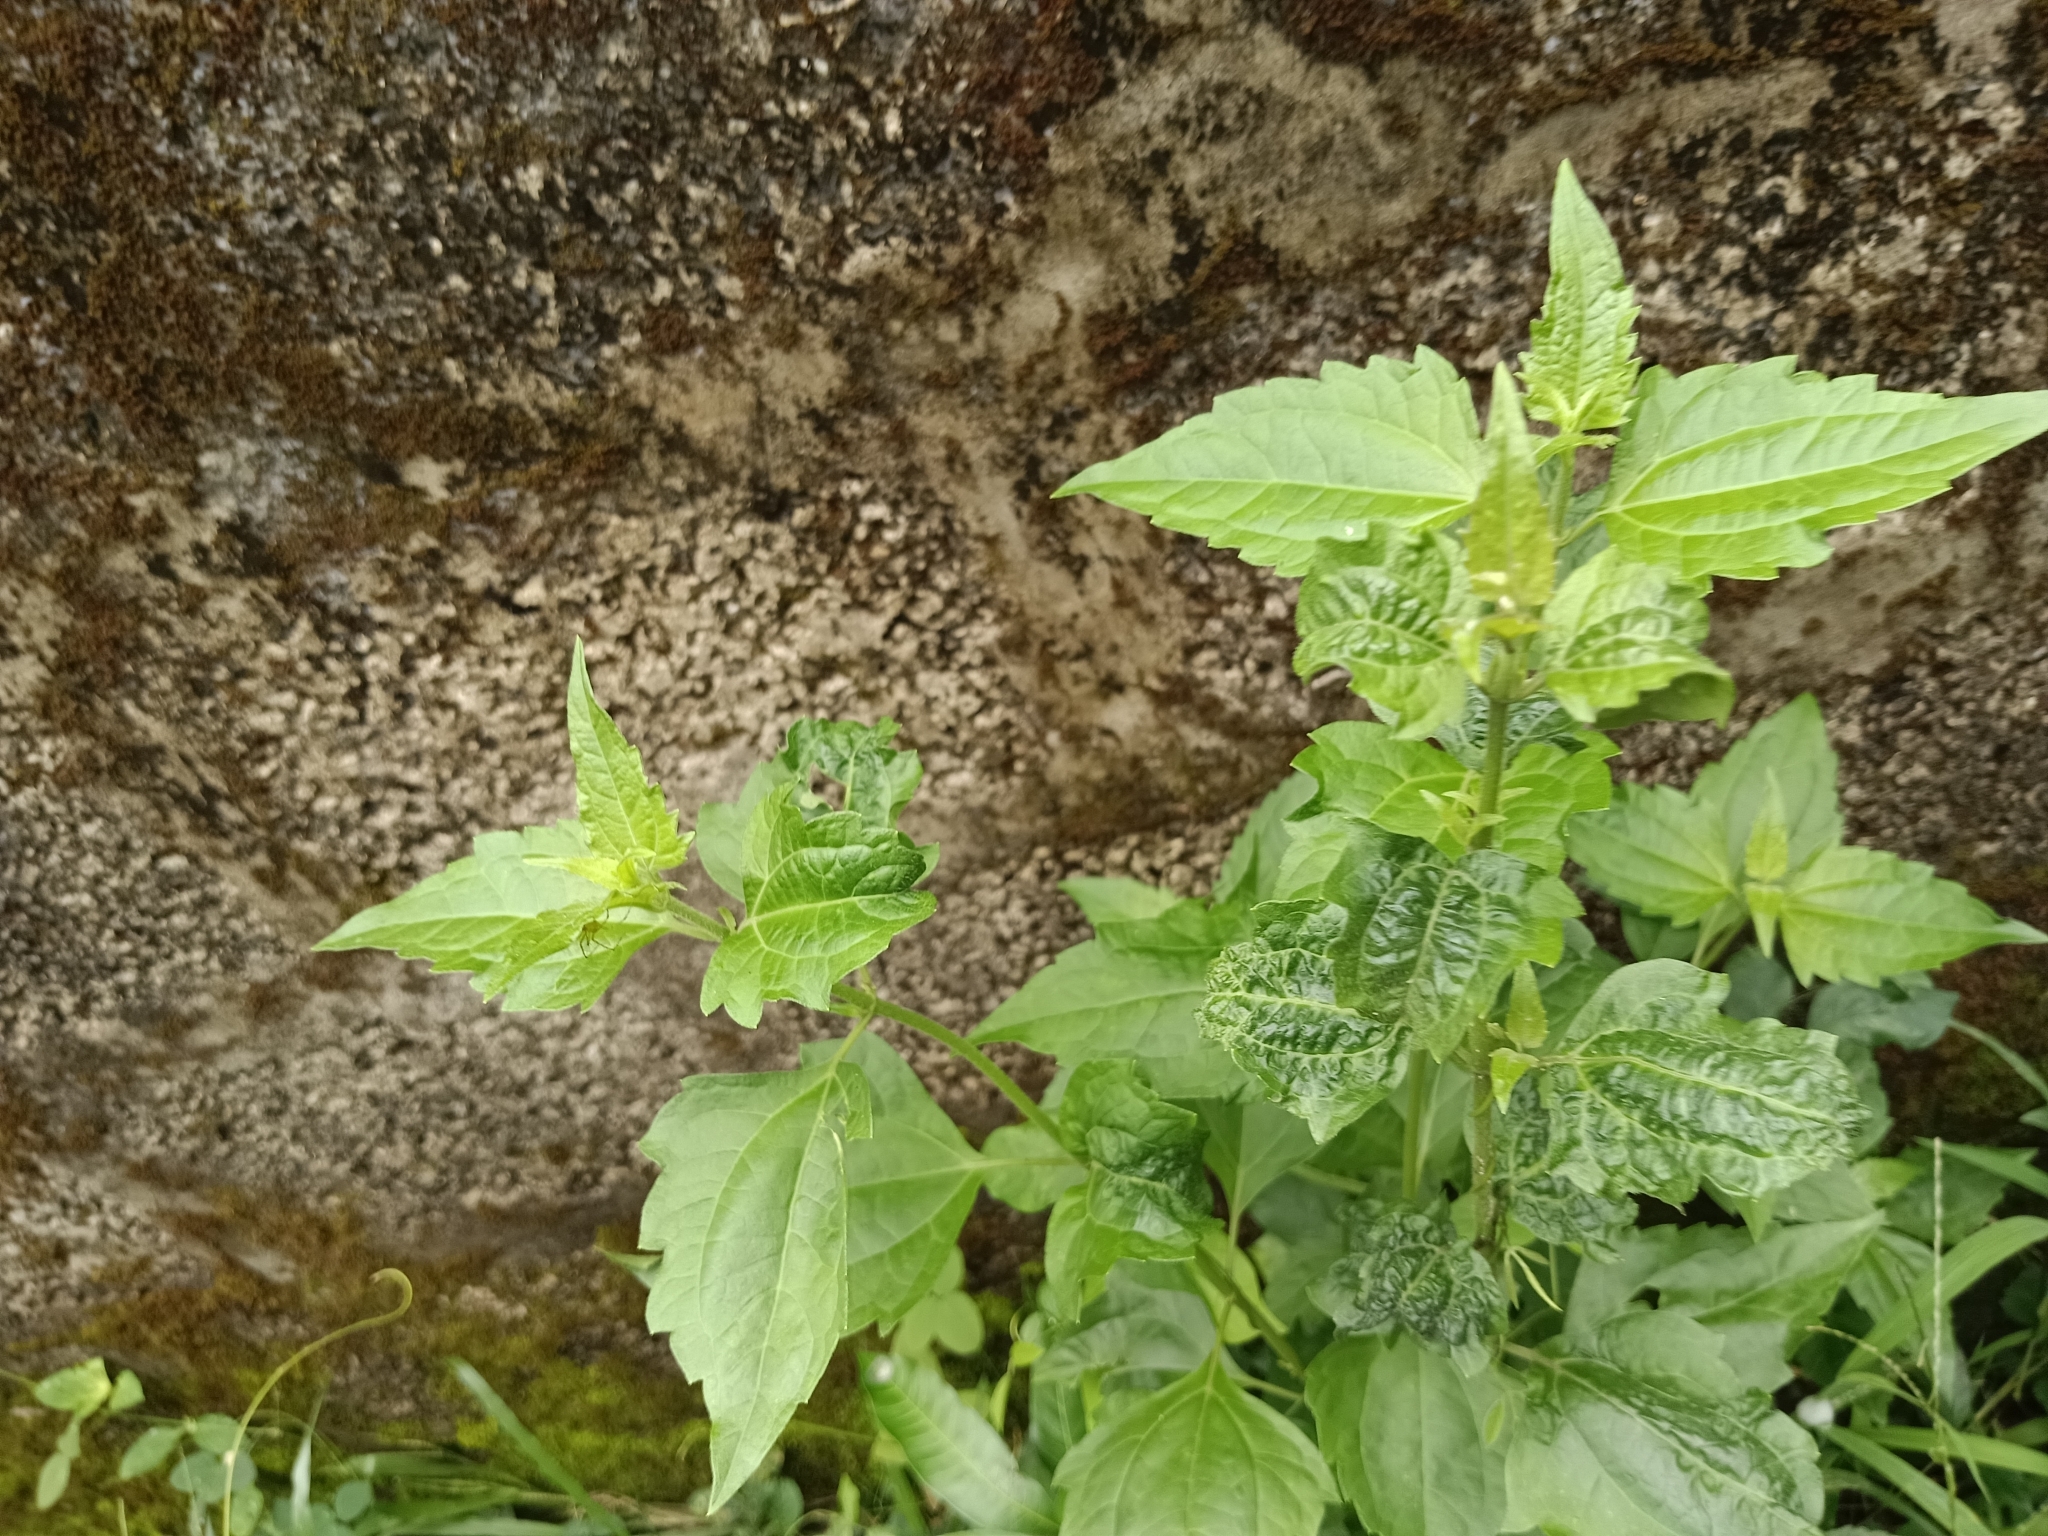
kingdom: Plantae
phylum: Tracheophyta
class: Magnoliopsida
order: Asterales
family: Asteraceae
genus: Chromolaena
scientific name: Chromolaena odorata
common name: Siamweed
